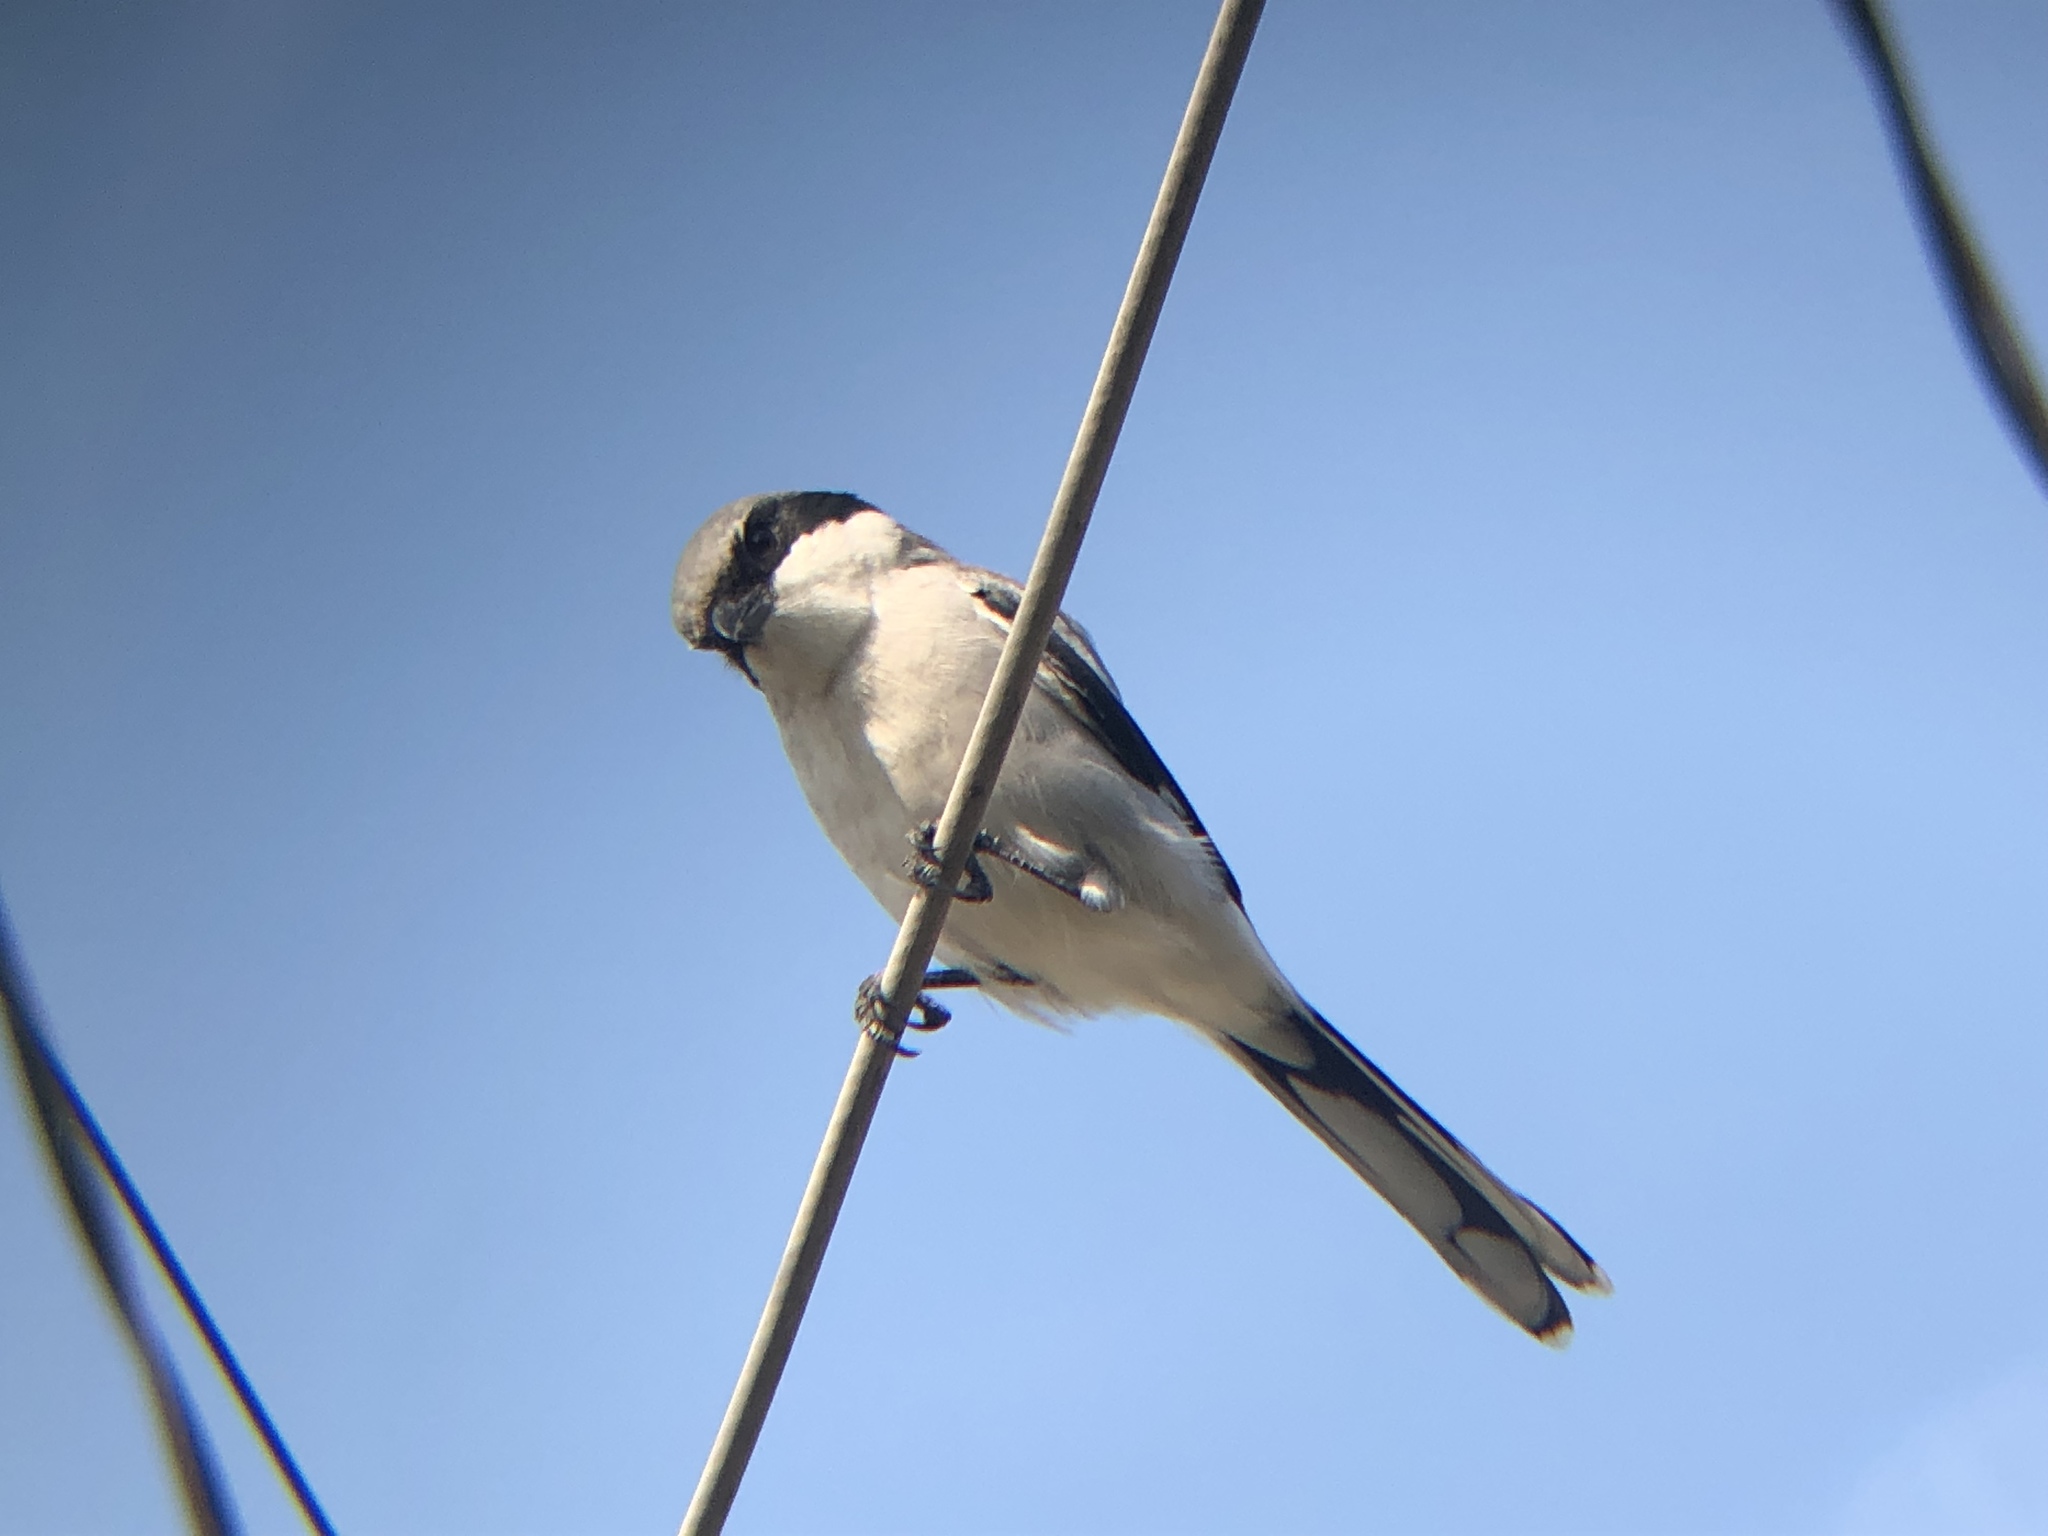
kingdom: Animalia
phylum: Chordata
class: Aves
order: Passeriformes
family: Laniidae
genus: Lanius
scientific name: Lanius ludovicianus
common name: Loggerhead shrike
